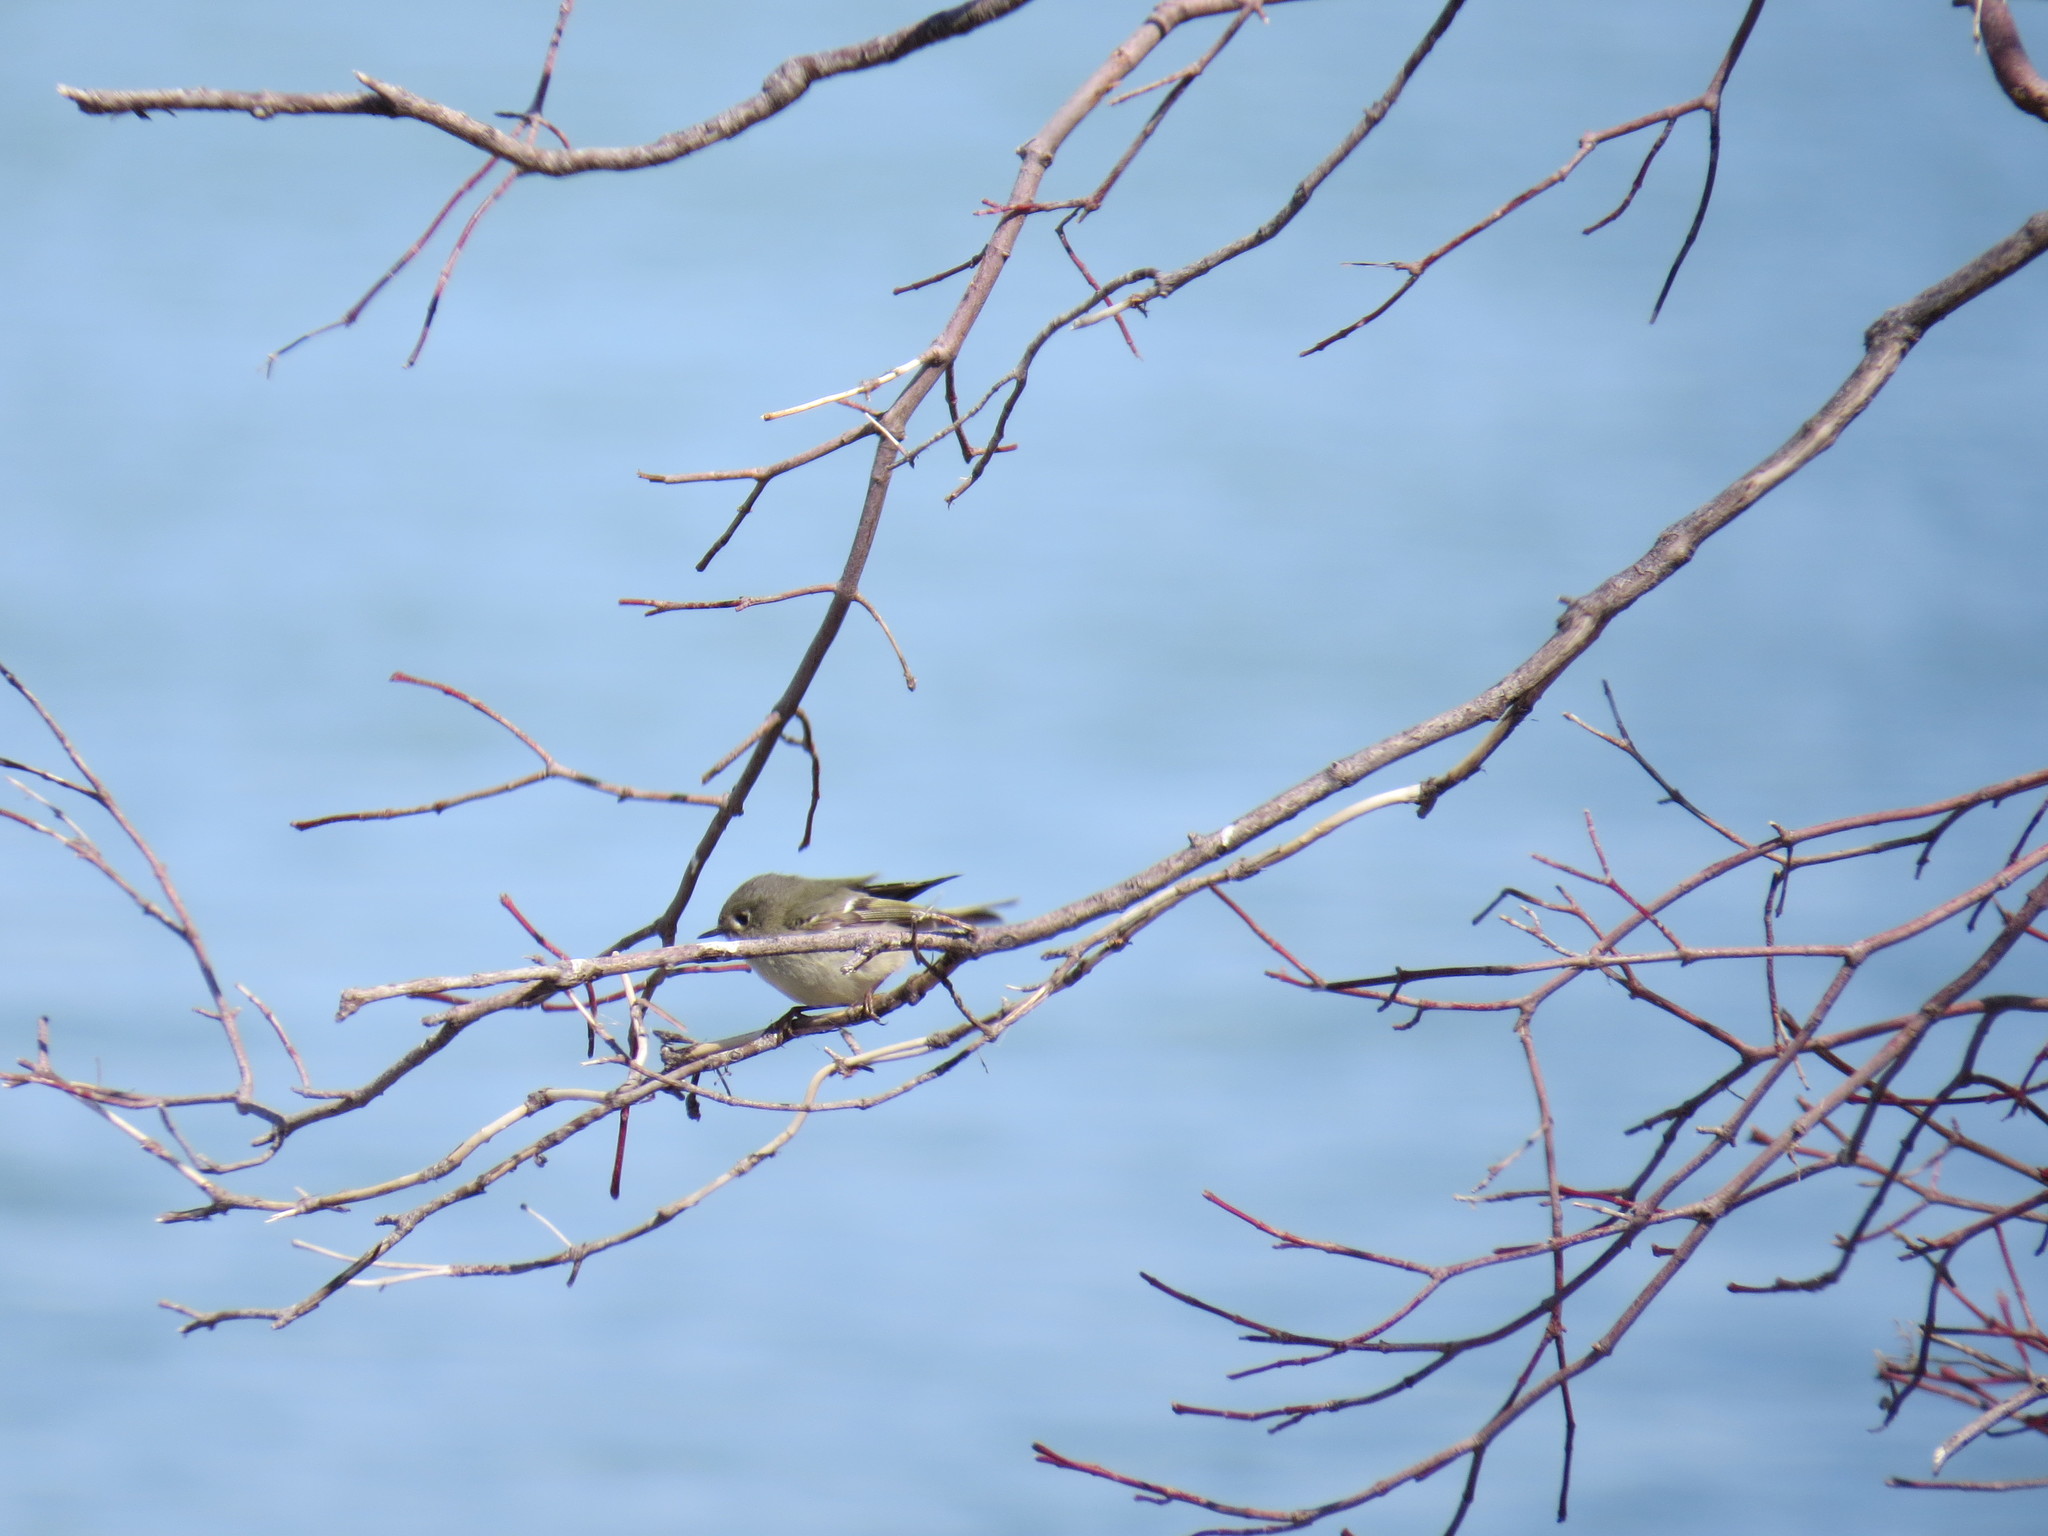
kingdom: Animalia
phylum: Chordata
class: Aves
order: Passeriformes
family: Regulidae
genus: Regulus
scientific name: Regulus calendula
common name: Ruby-crowned kinglet
